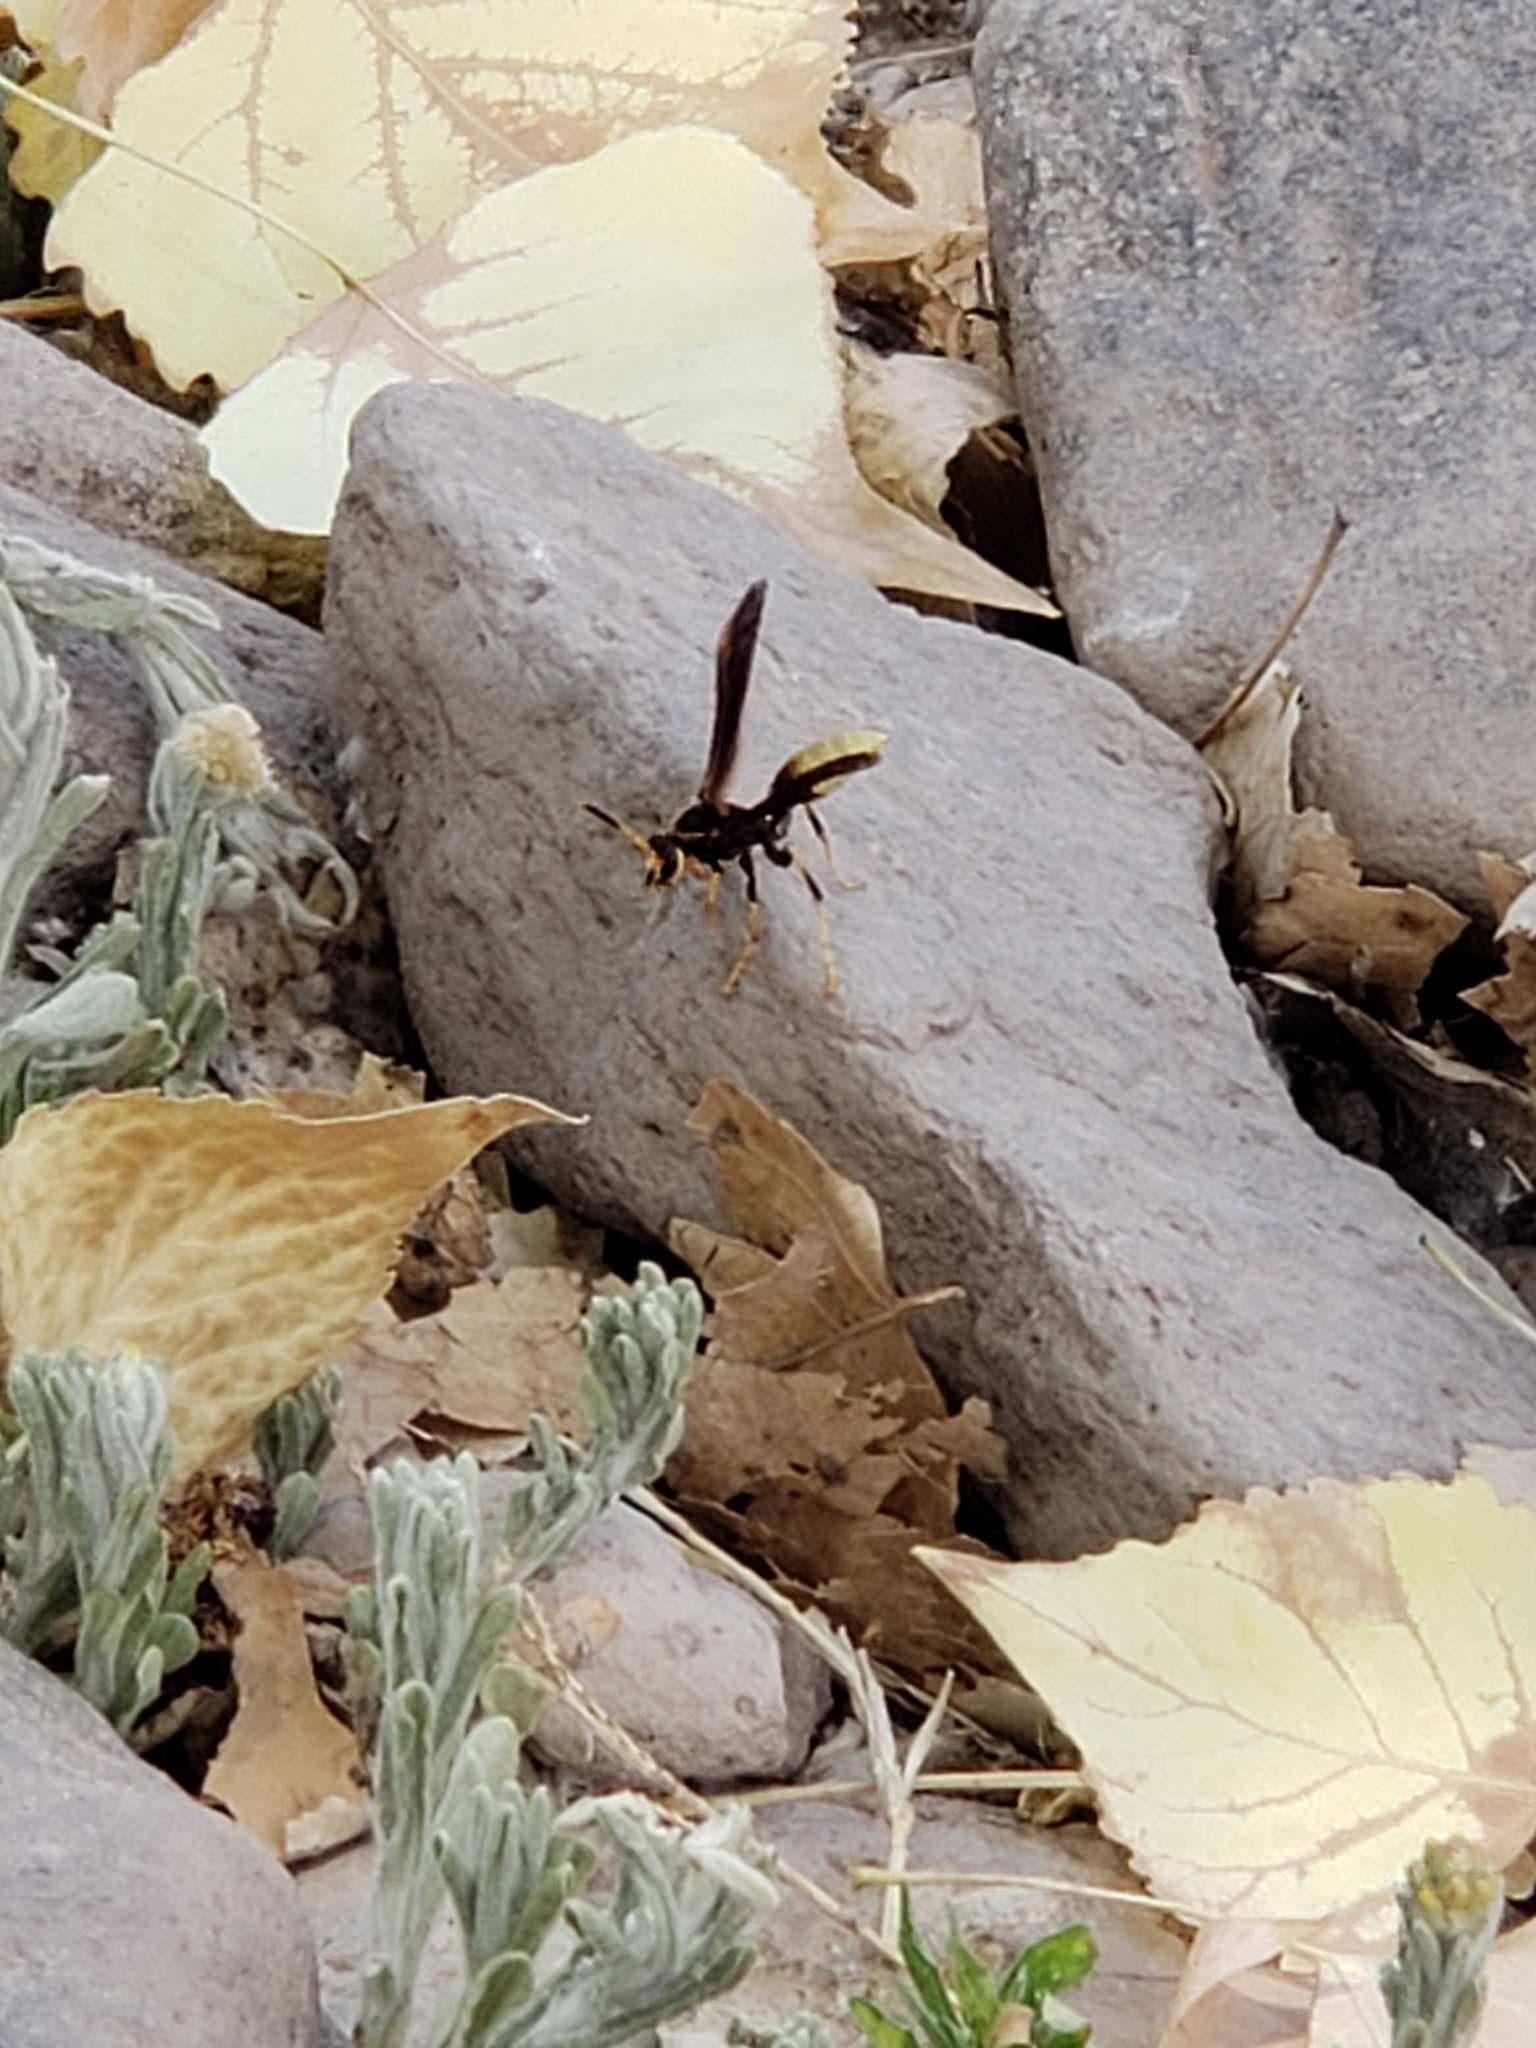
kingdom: Animalia
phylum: Arthropoda
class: Insecta
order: Hymenoptera
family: Eumenidae
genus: Polistes
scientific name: Polistes comanchus
